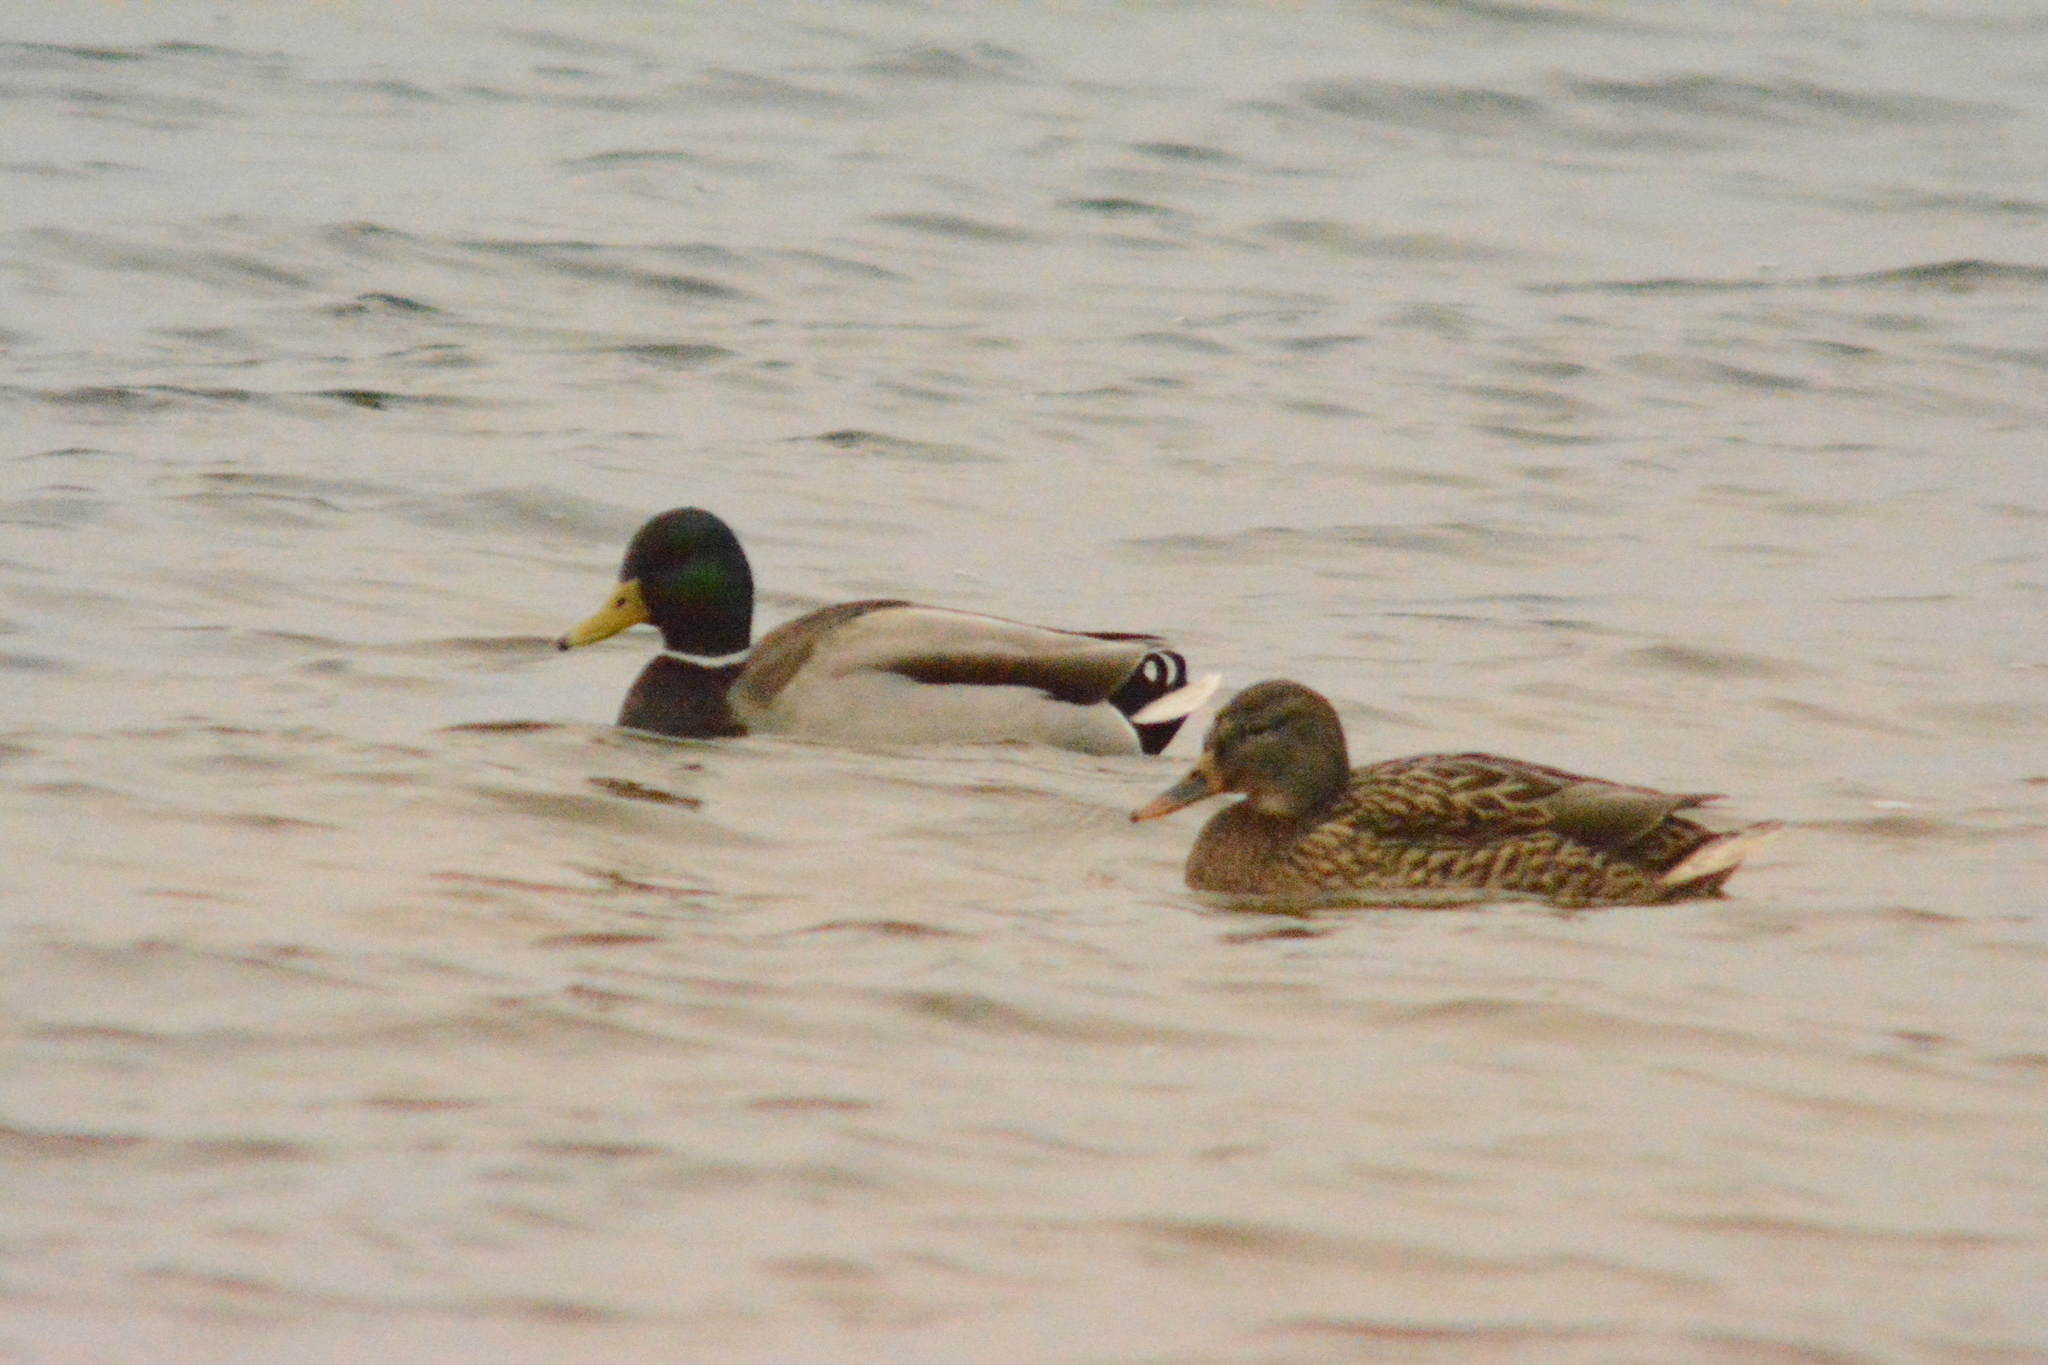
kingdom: Animalia
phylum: Chordata
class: Aves
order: Anseriformes
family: Anatidae
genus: Anas
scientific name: Anas platyrhynchos
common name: Mallard
